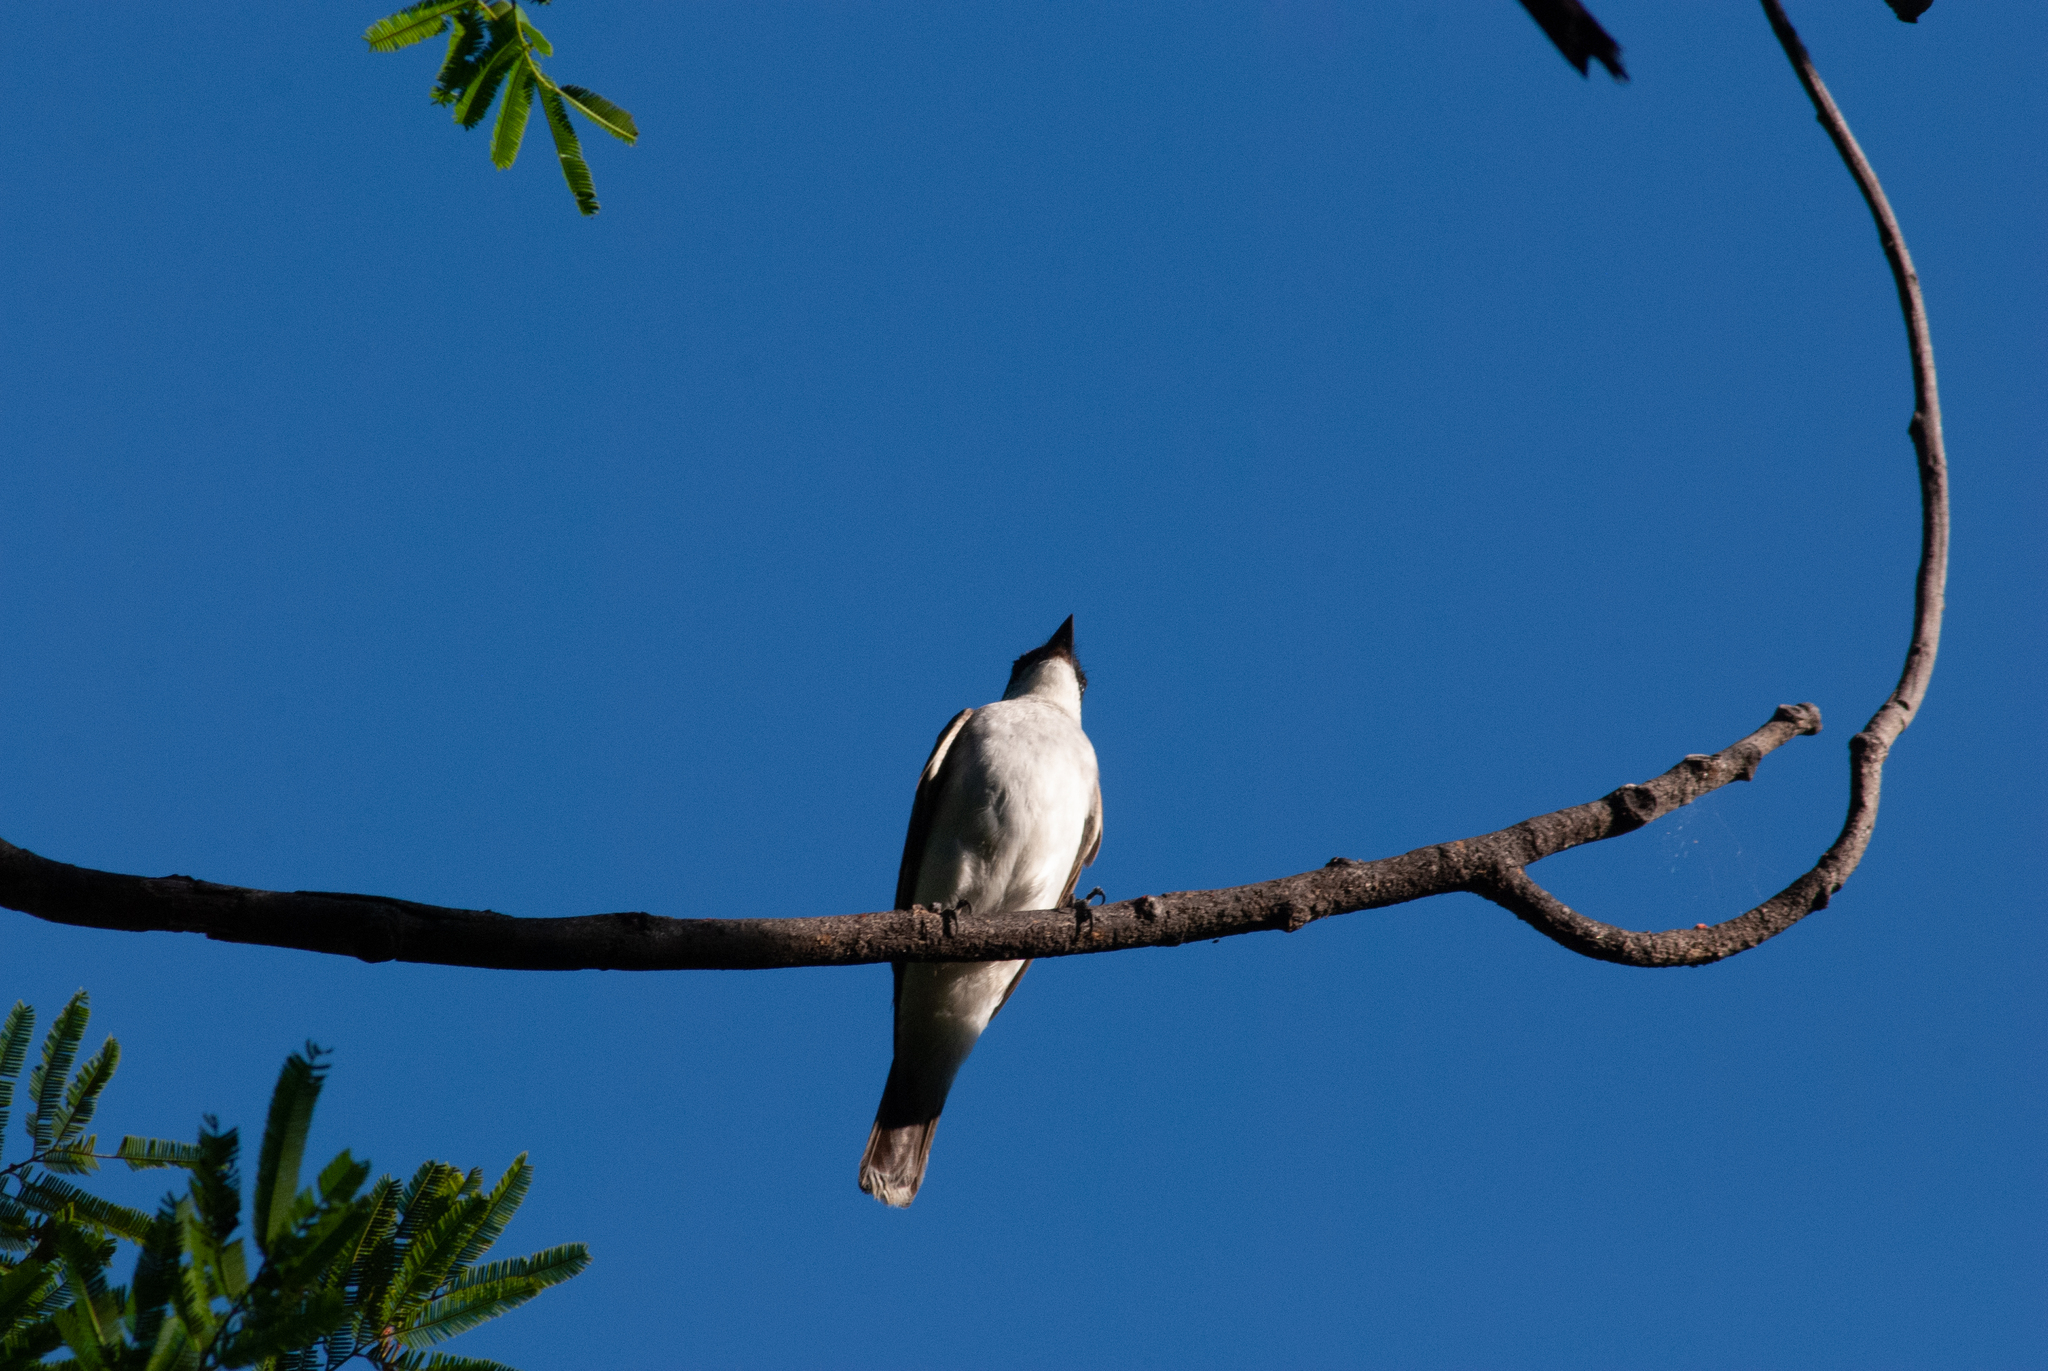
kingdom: Animalia
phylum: Chordata
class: Aves
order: Passeriformes
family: Tyrannidae
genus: Tyrannus
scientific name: Tyrannus tyrannus
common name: Eastern kingbird
